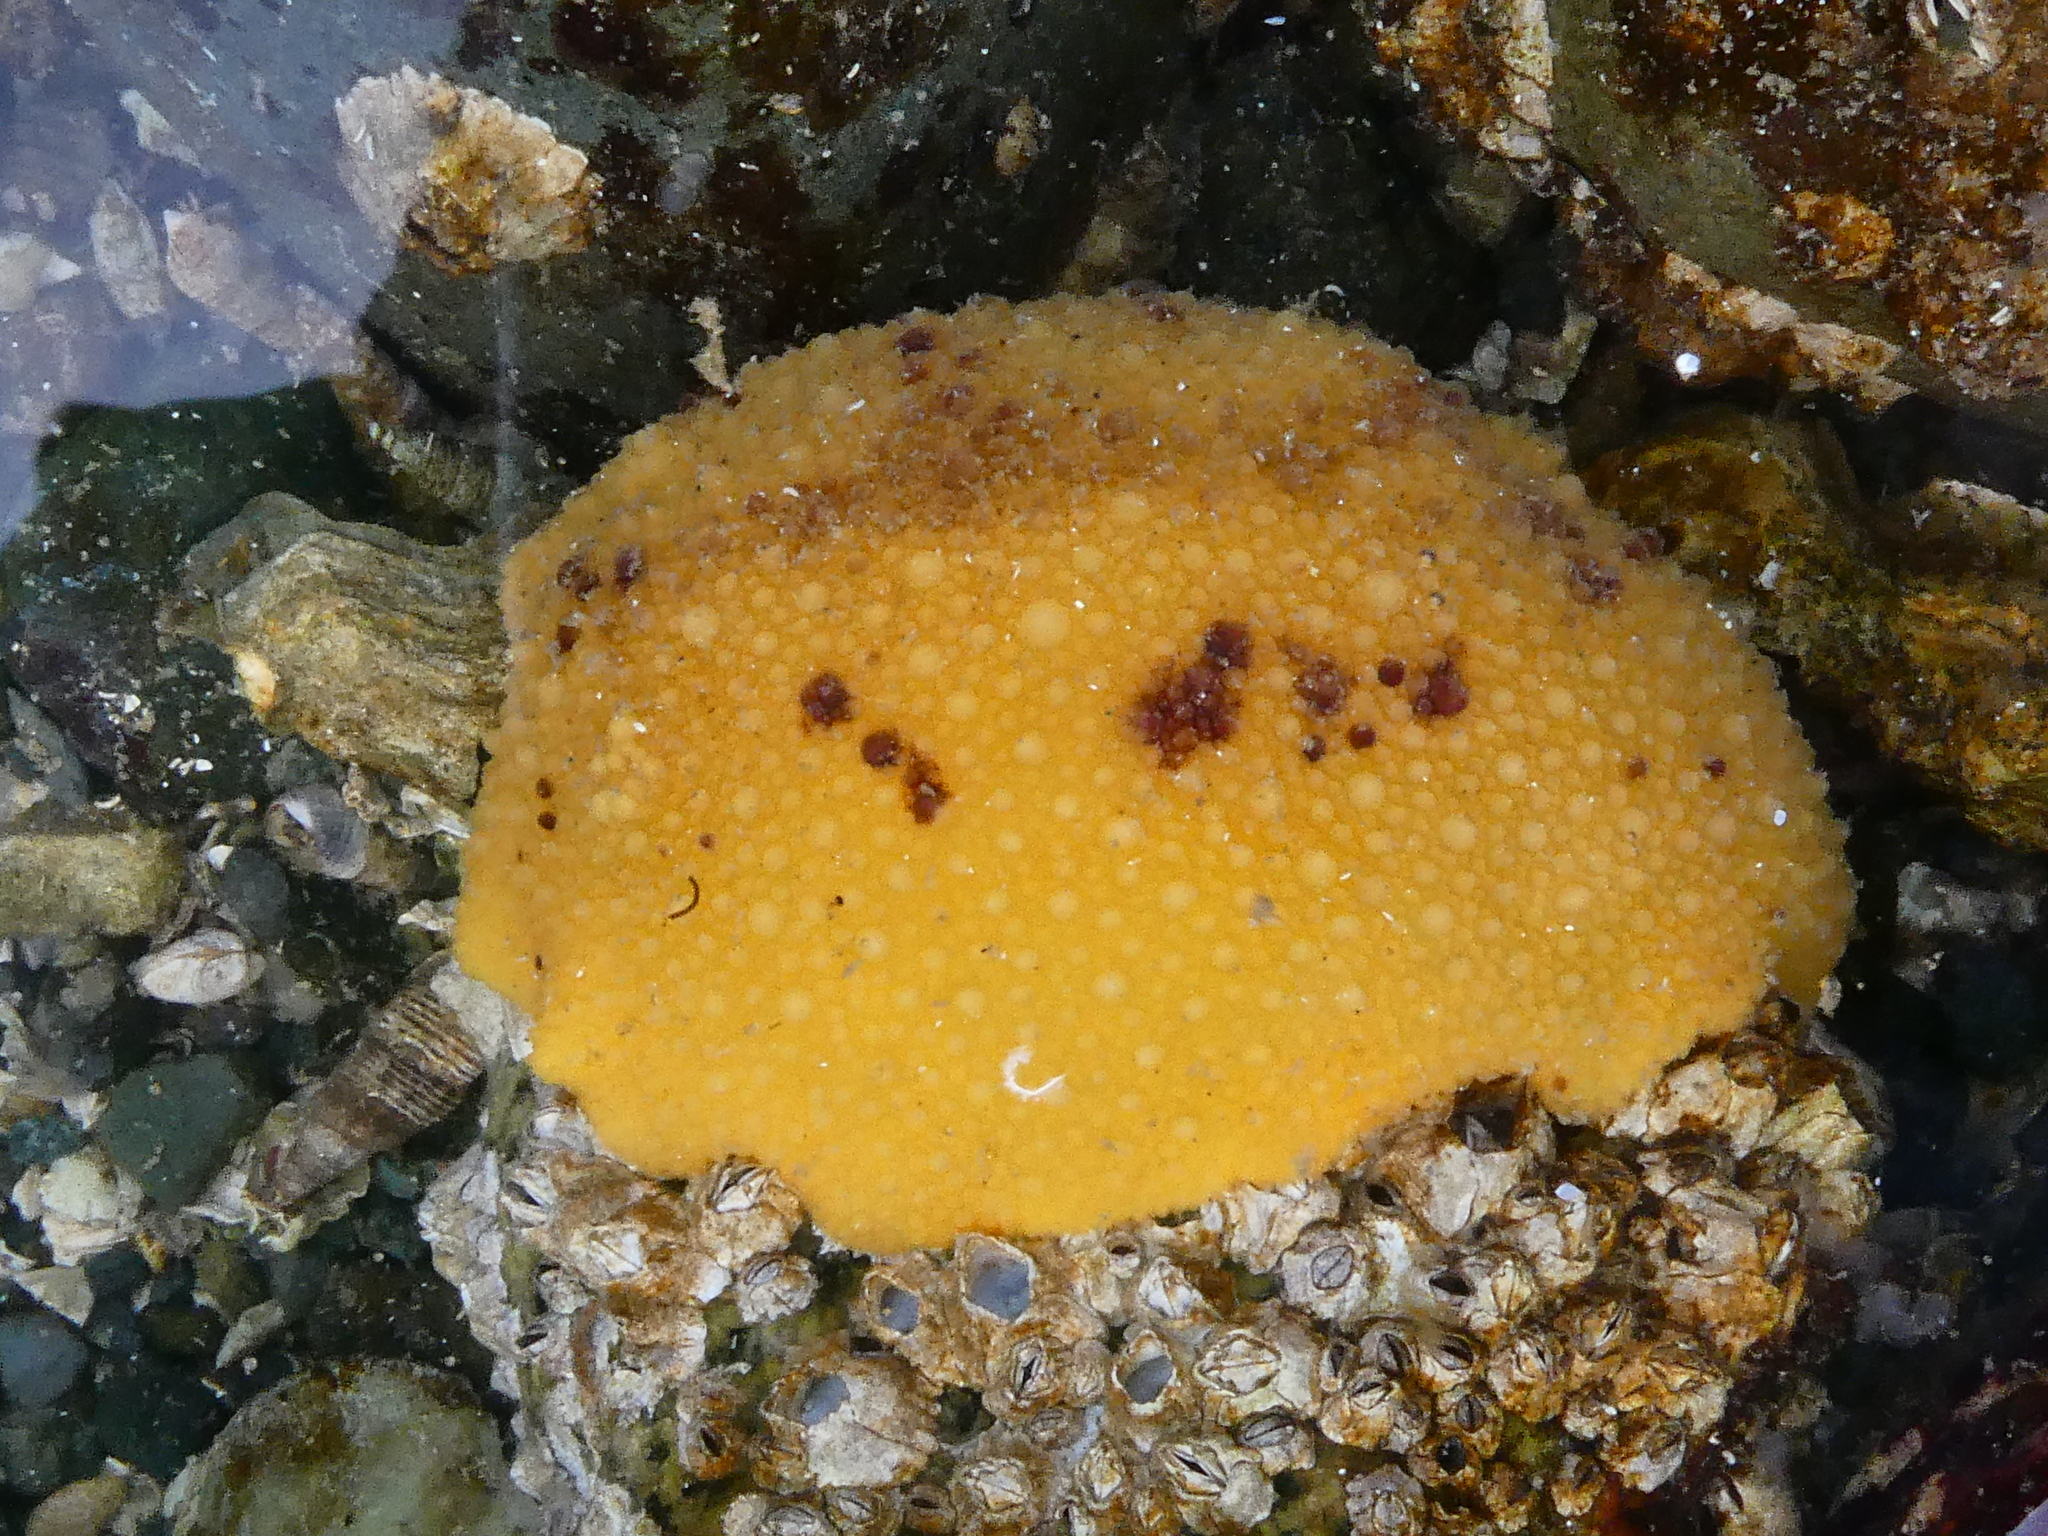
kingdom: Animalia
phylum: Mollusca
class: Gastropoda
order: Nudibranchia
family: Dorididae
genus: Doris
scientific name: Doris montereyensis
